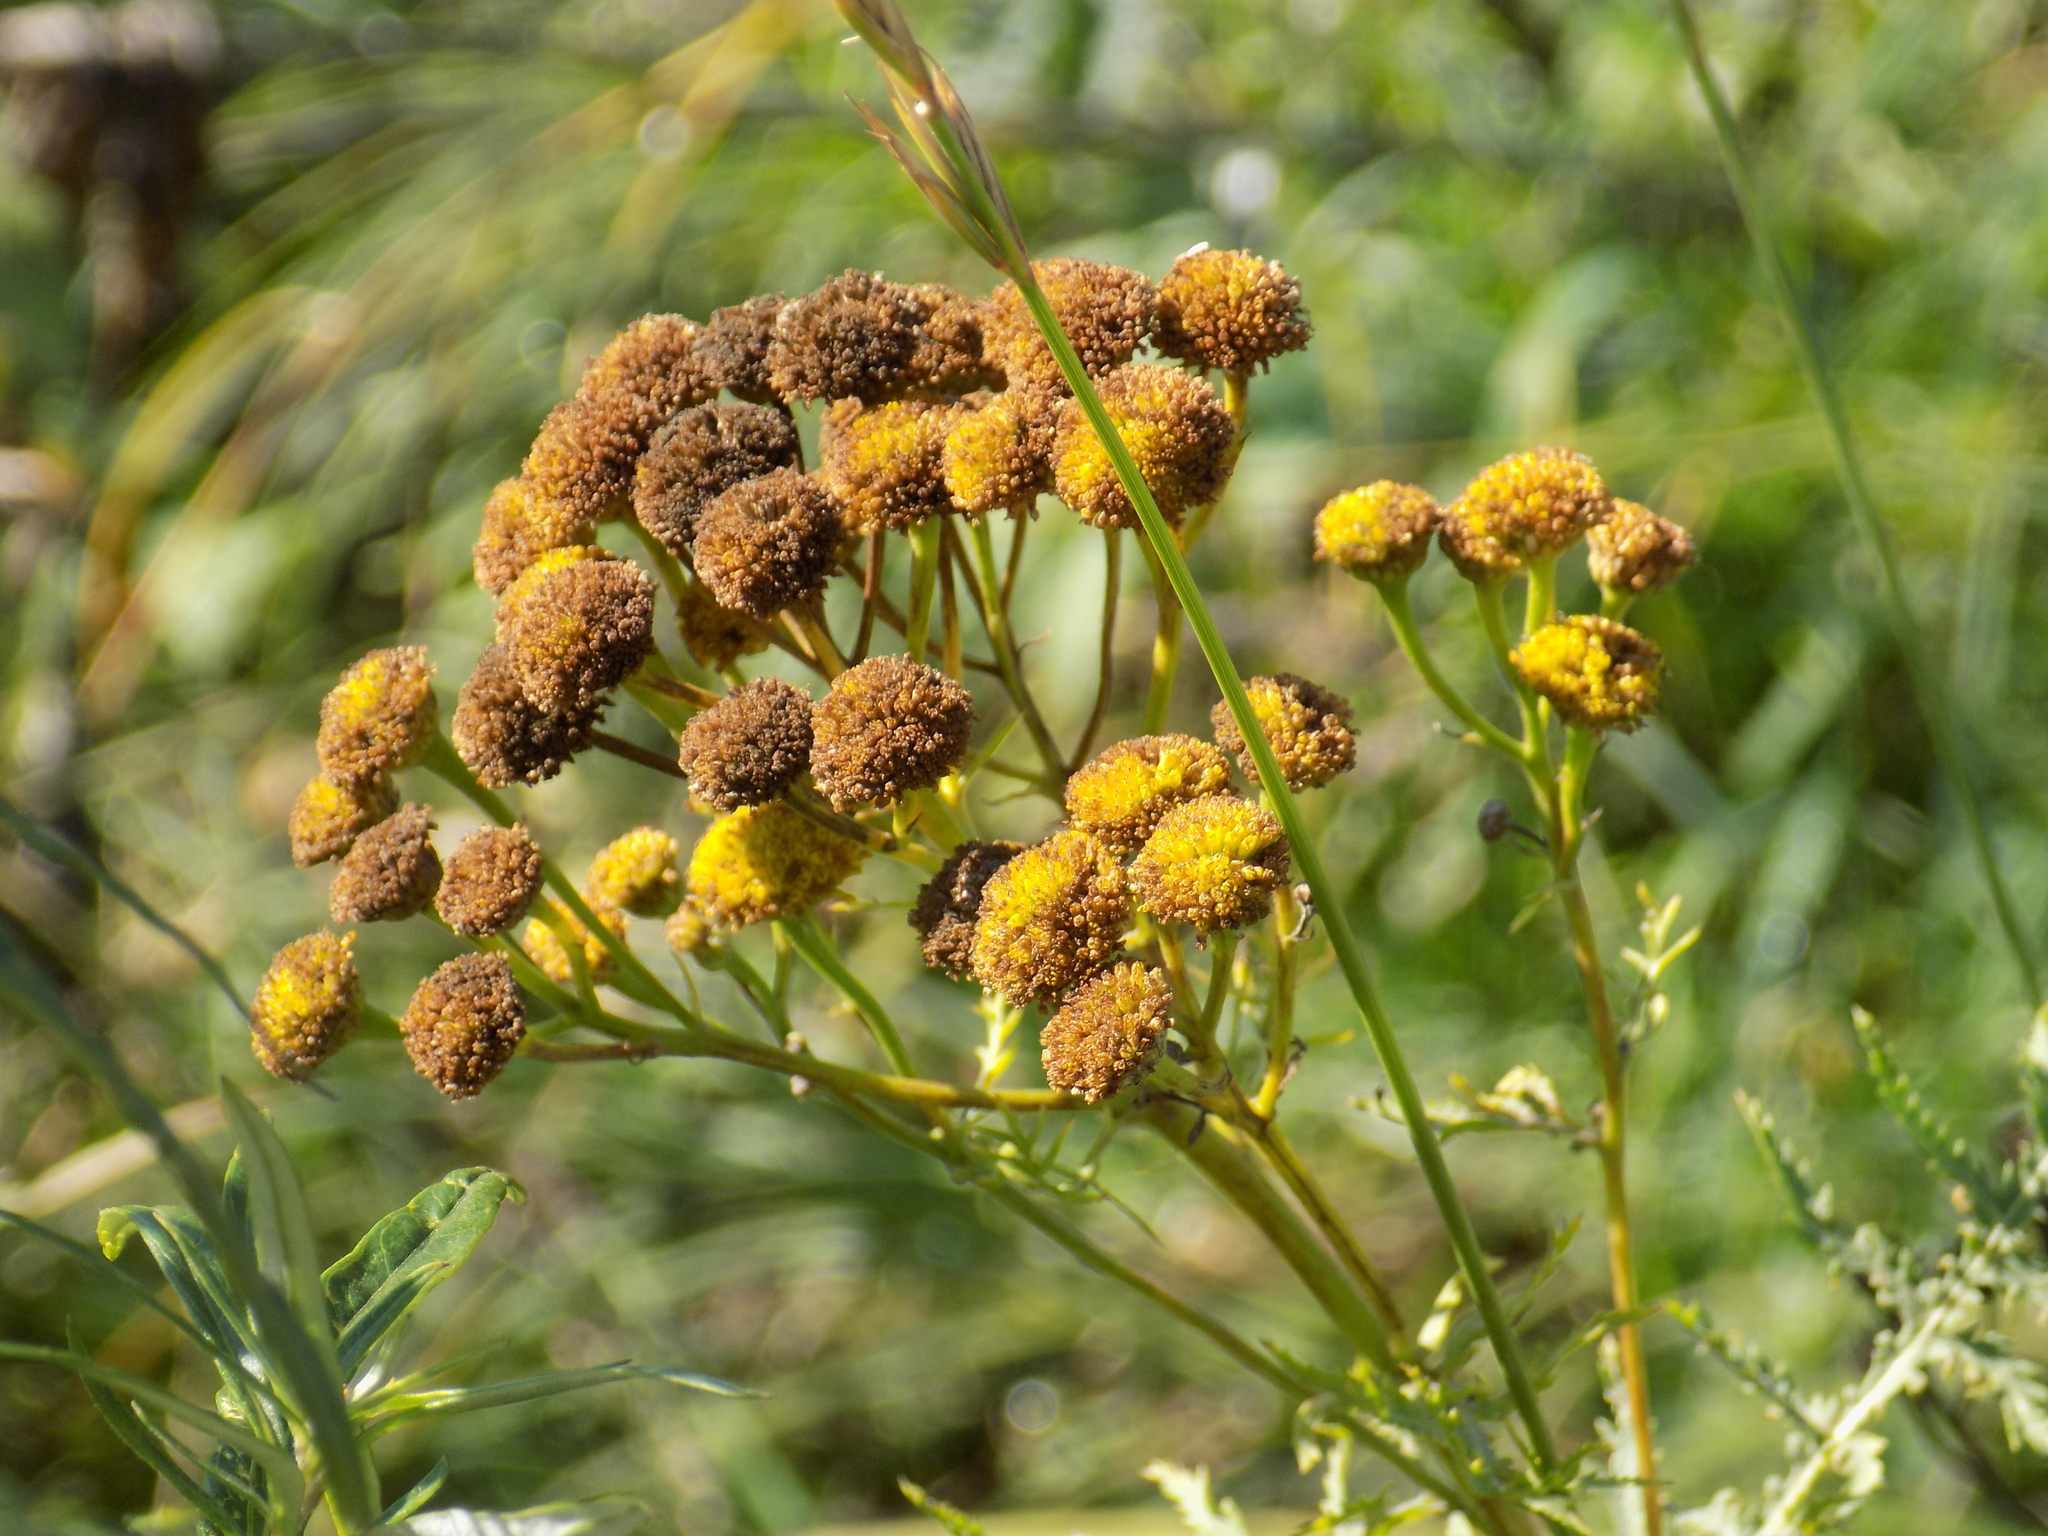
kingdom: Plantae
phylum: Tracheophyta
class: Magnoliopsida
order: Asterales
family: Asteraceae
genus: Tanacetum
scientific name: Tanacetum vulgare
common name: Common tansy
